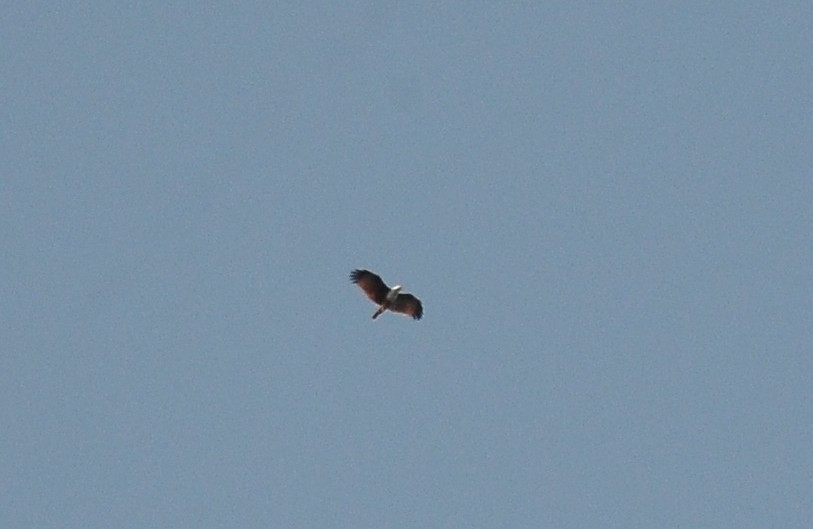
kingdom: Animalia
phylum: Chordata
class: Aves
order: Accipitriformes
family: Accipitridae
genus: Haliastur
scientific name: Haliastur indus
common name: Brahminy kite
